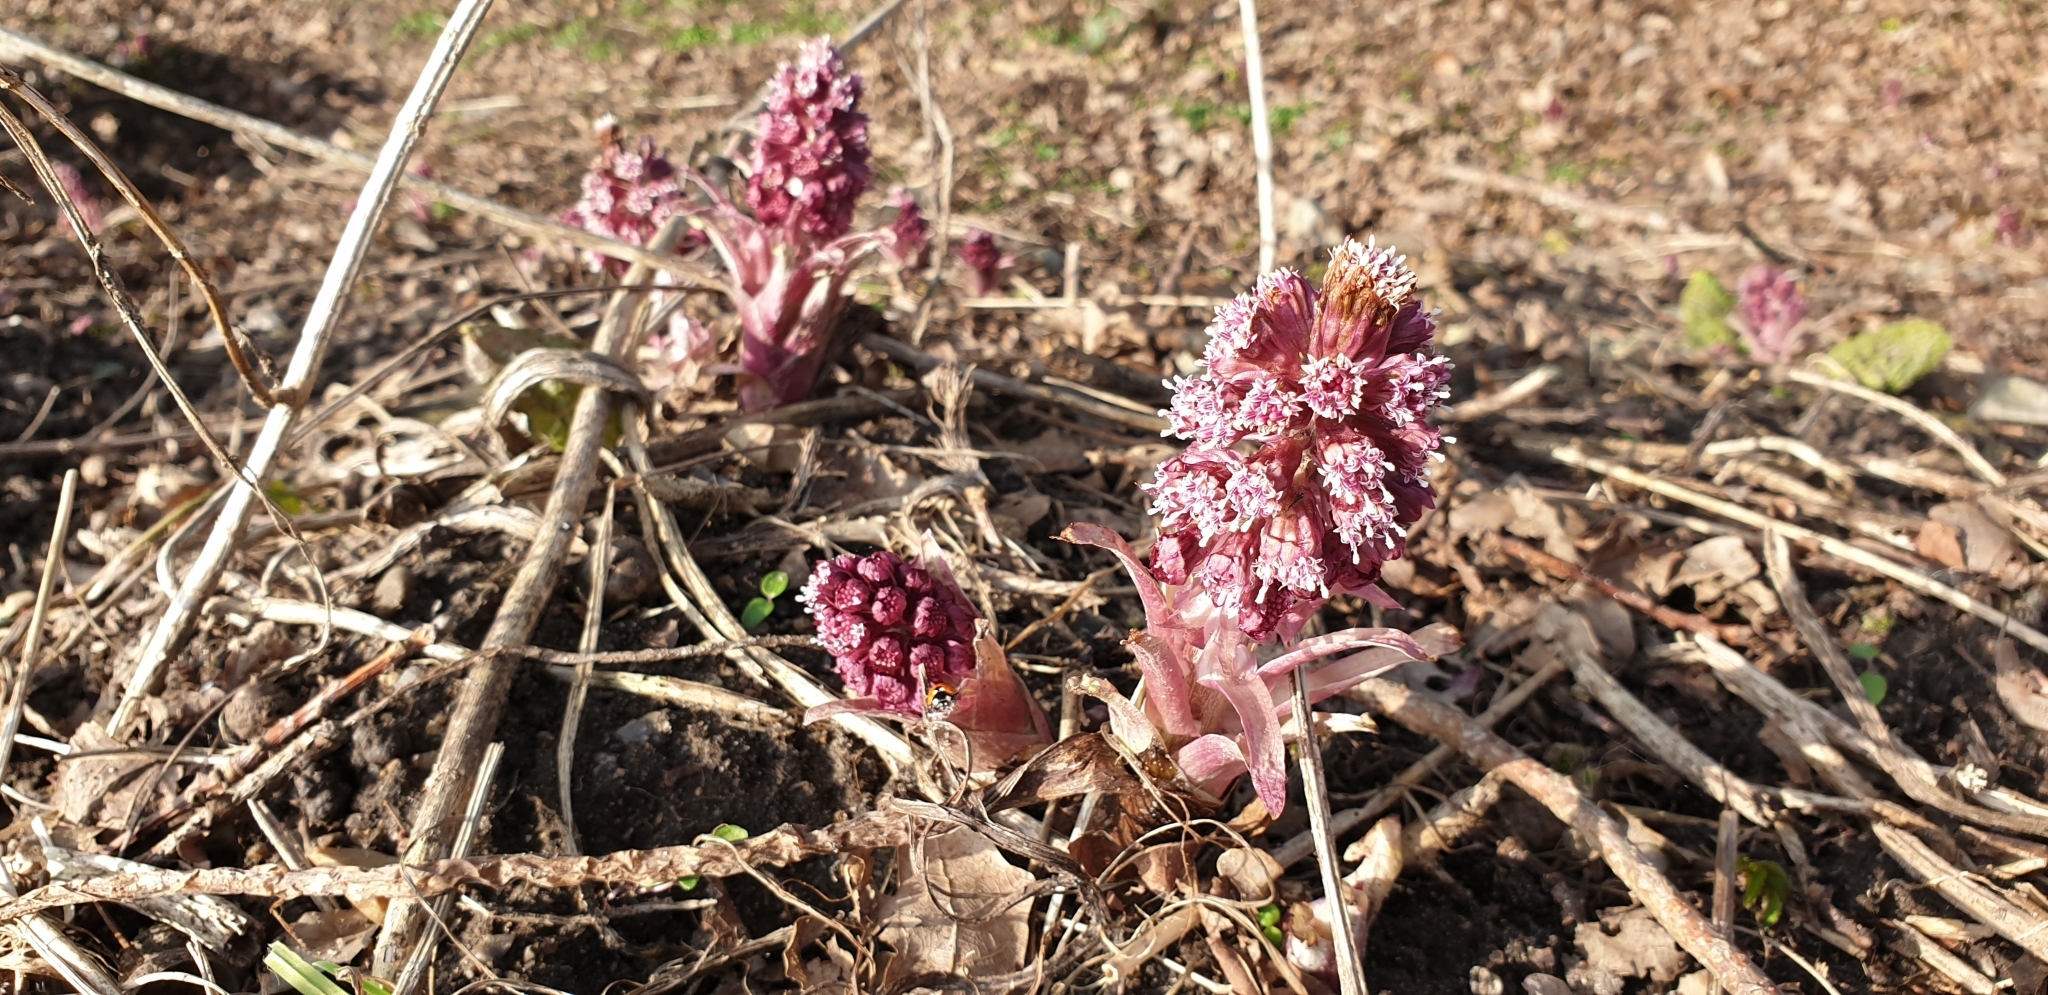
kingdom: Plantae
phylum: Tracheophyta
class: Magnoliopsida
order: Asterales
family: Asteraceae
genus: Petasites
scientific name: Petasites hybridus
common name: Butterbur
